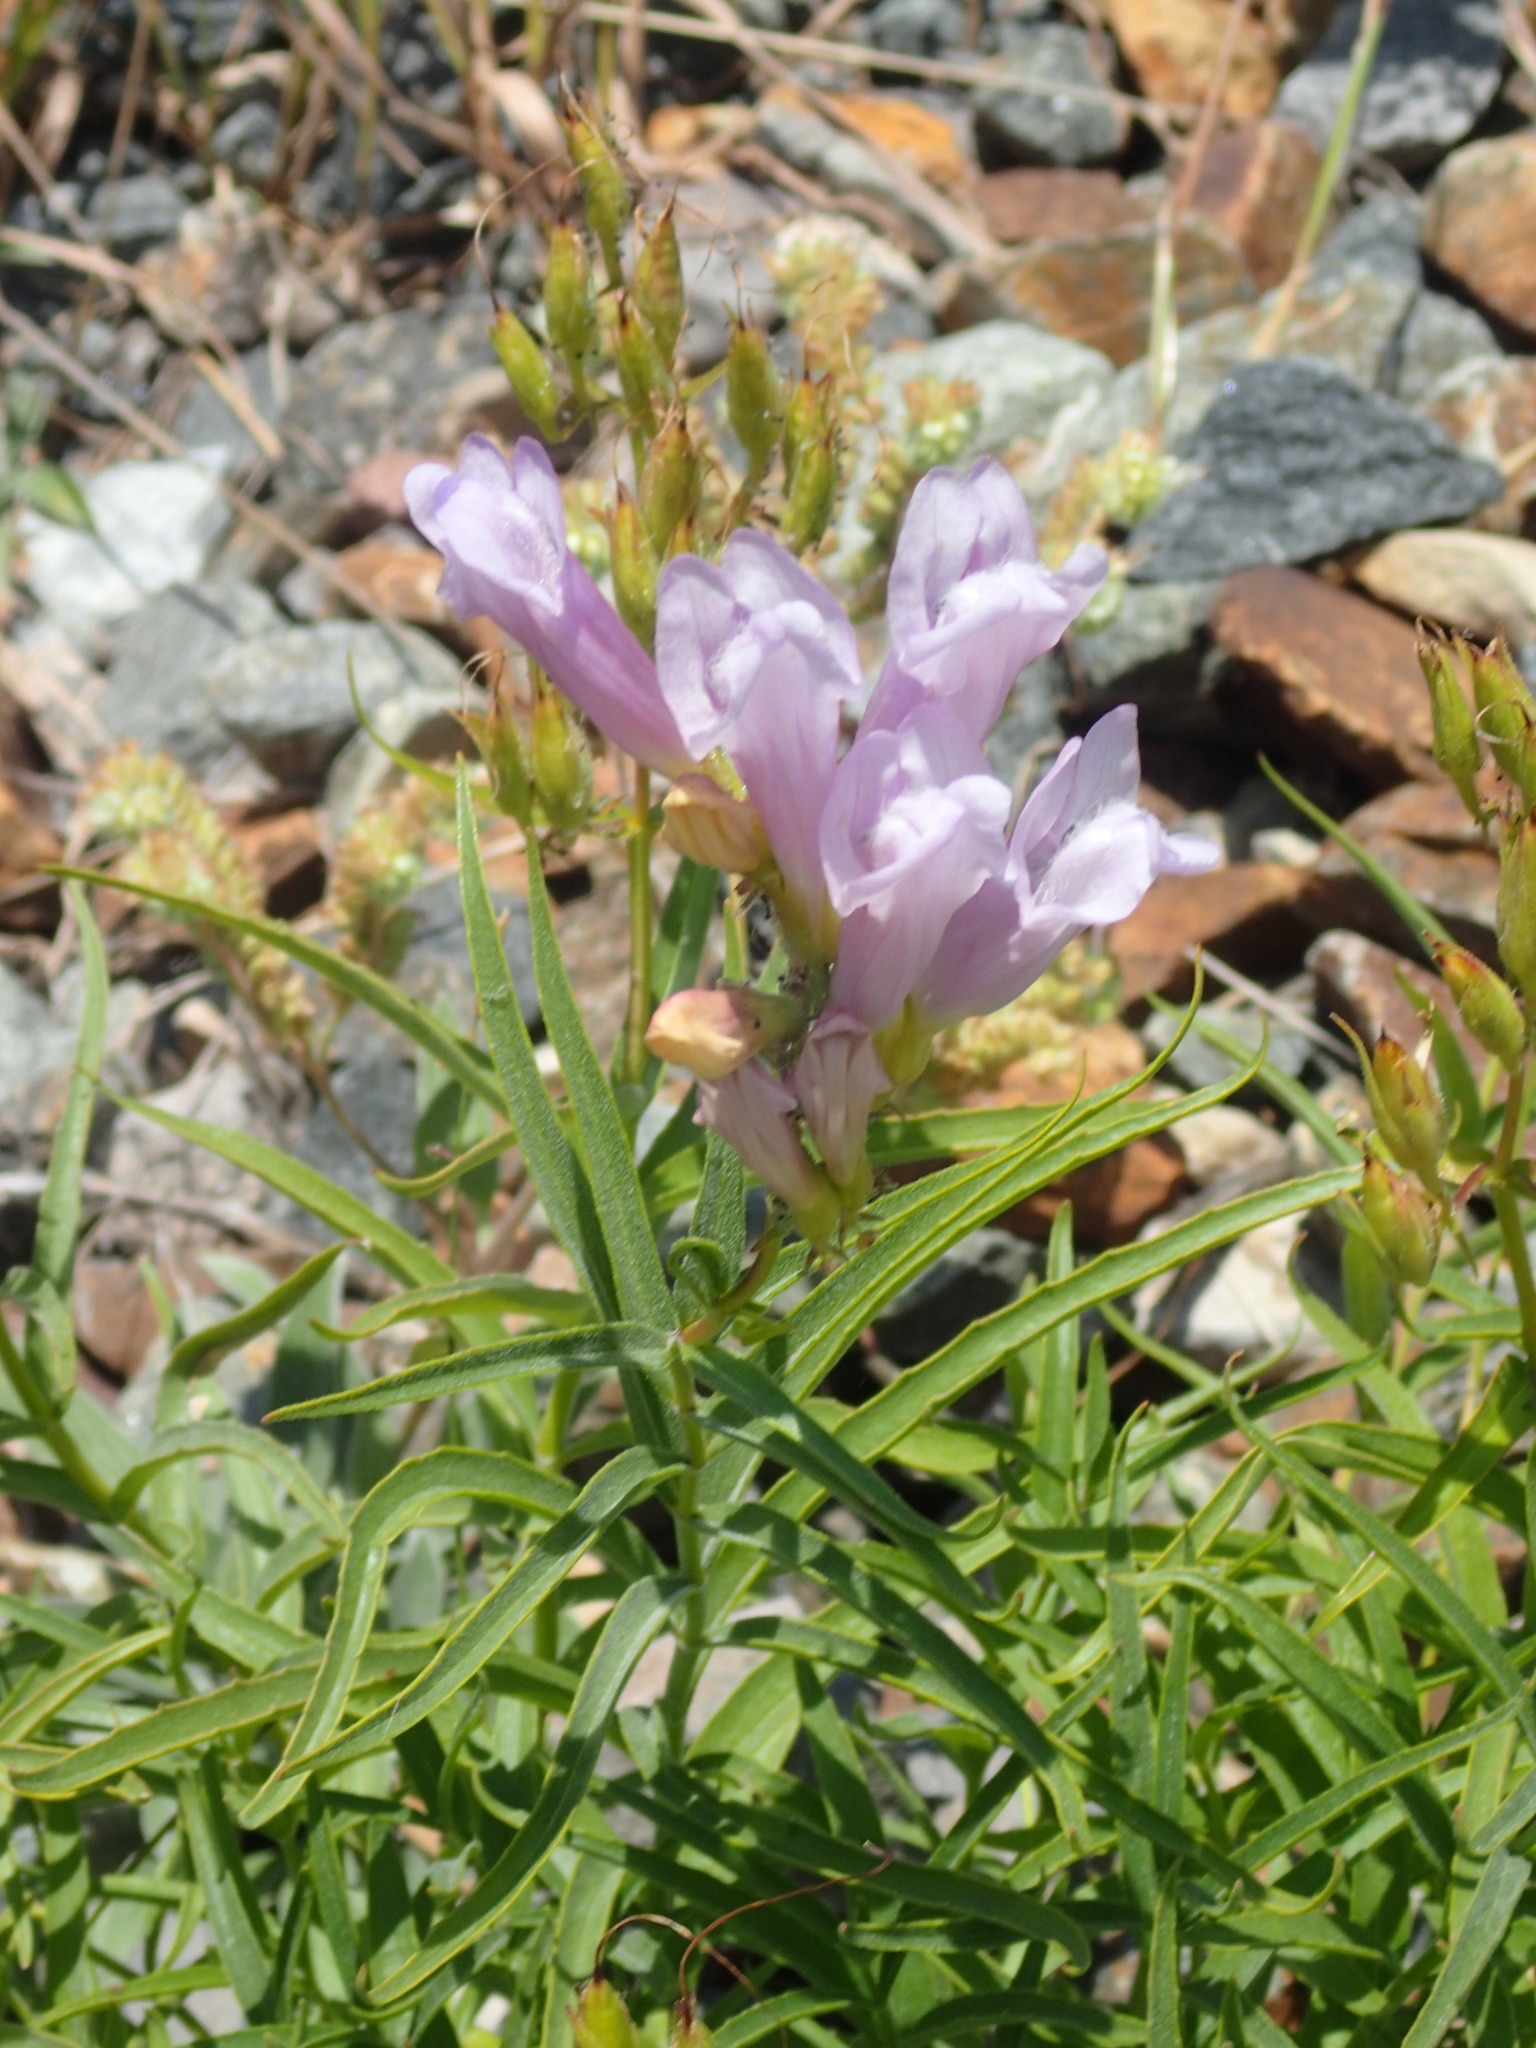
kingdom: Plantae
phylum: Tracheophyta
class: Magnoliopsida
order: Lamiales
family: Plantaginaceae
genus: Penstemon
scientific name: Penstemon lyalli
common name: Lyall's beardtongue
